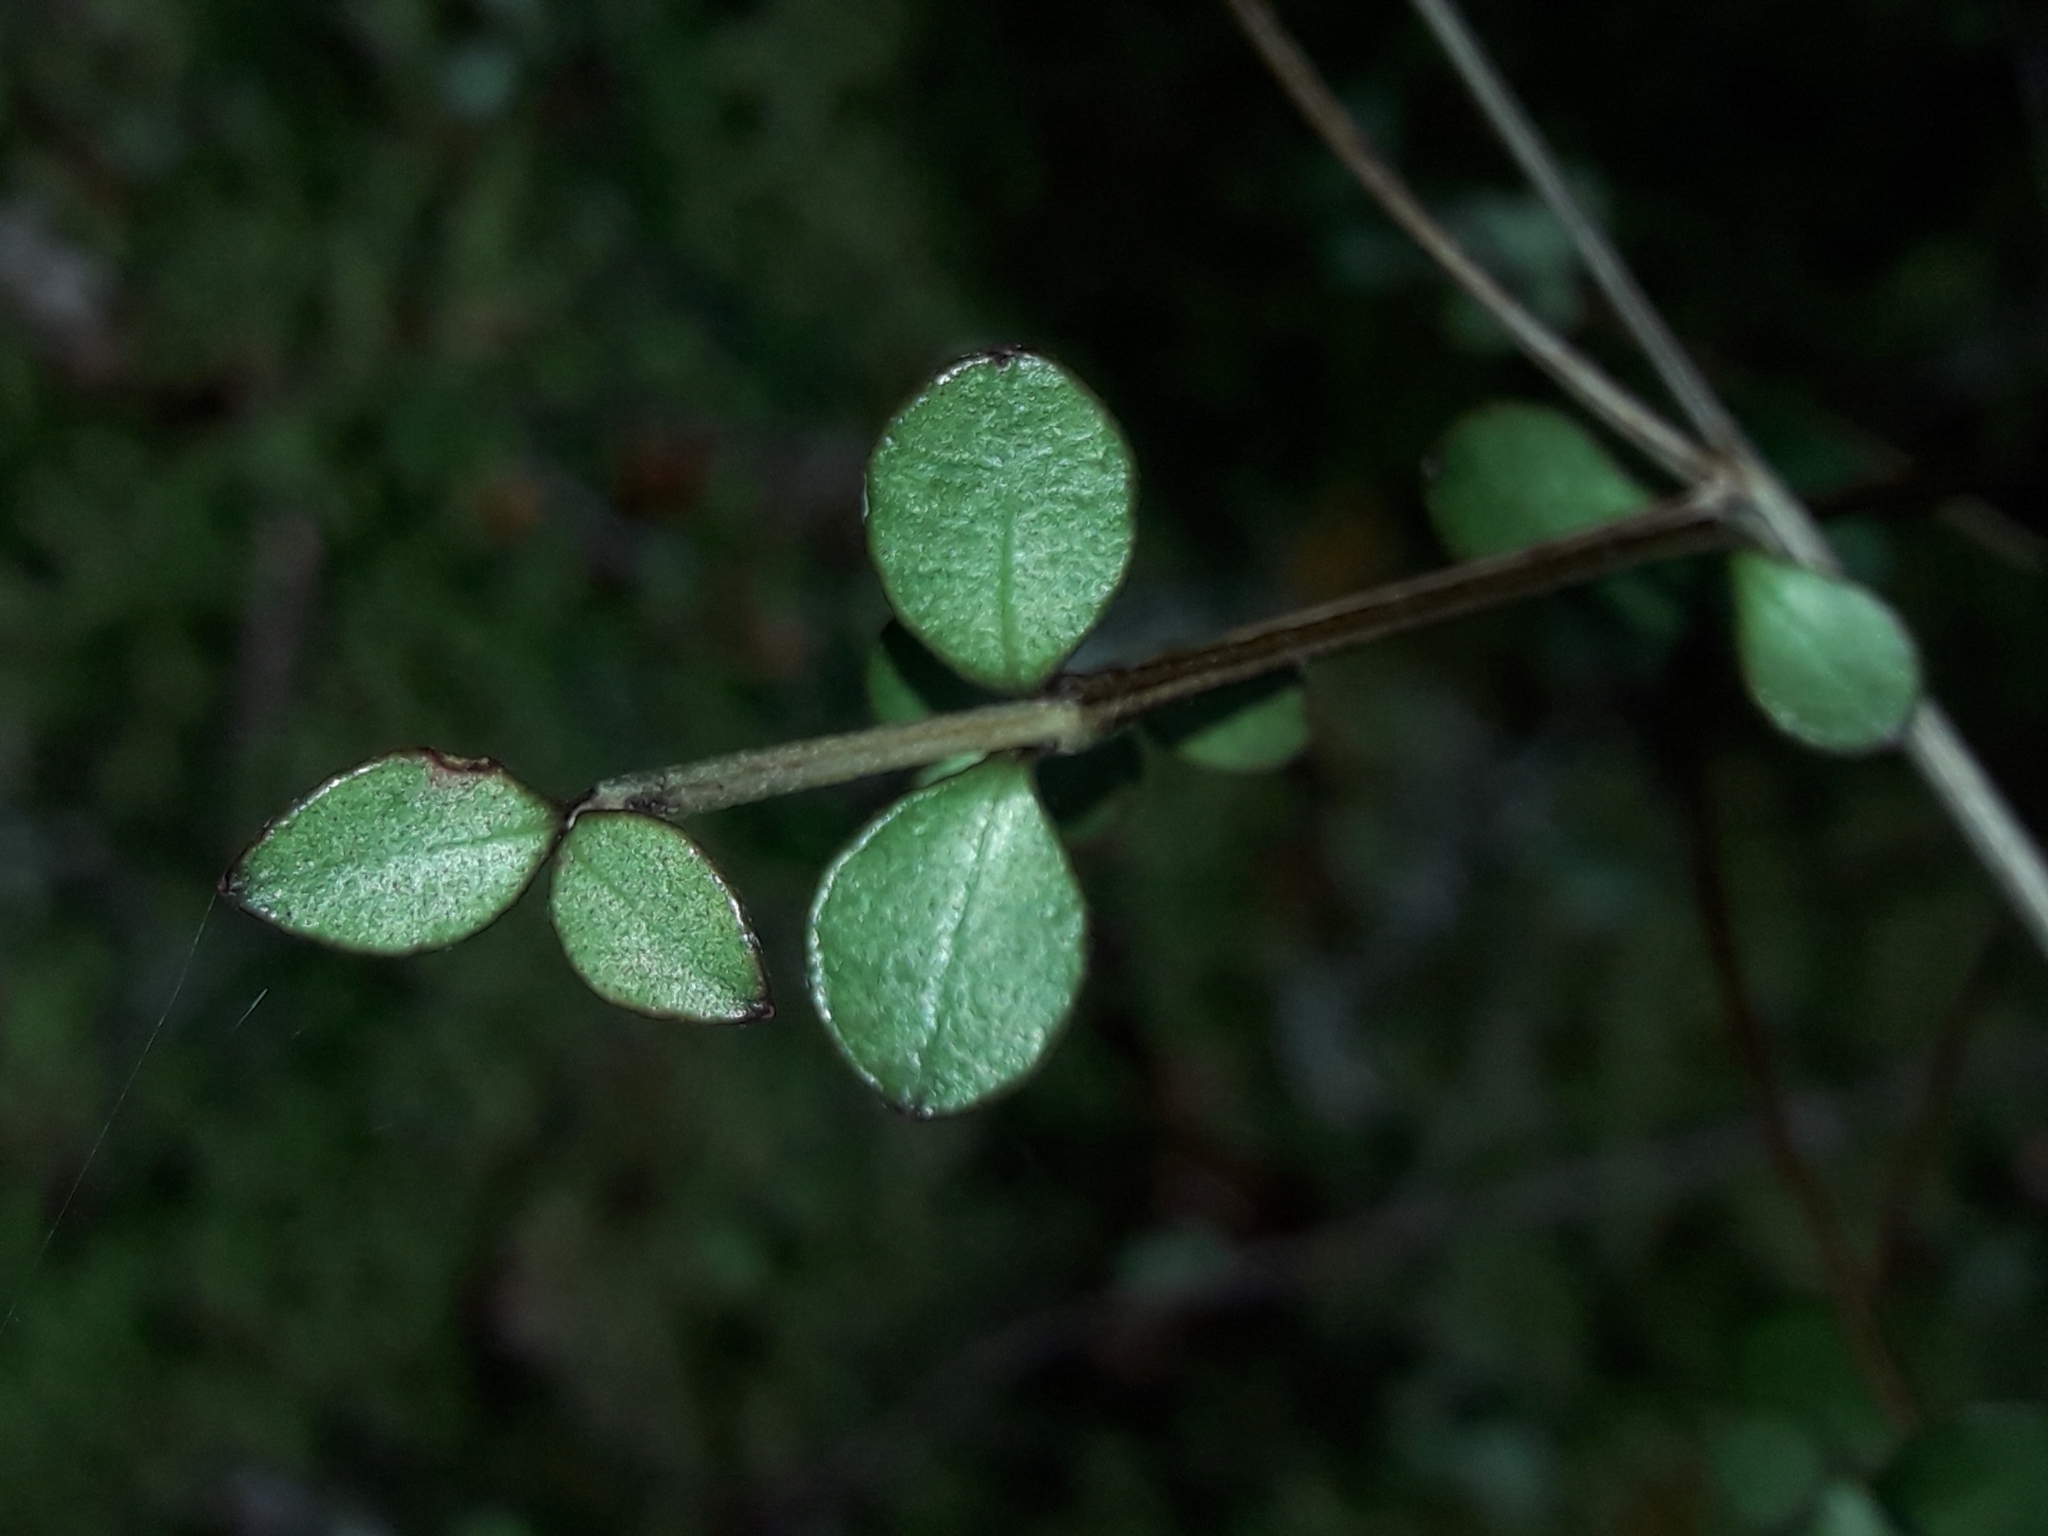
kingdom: Plantae
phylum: Tracheophyta
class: Magnoliopsida
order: Myrtales
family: Myrtaceae
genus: Neomyrtus
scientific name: Neomyrtus pedunculata
